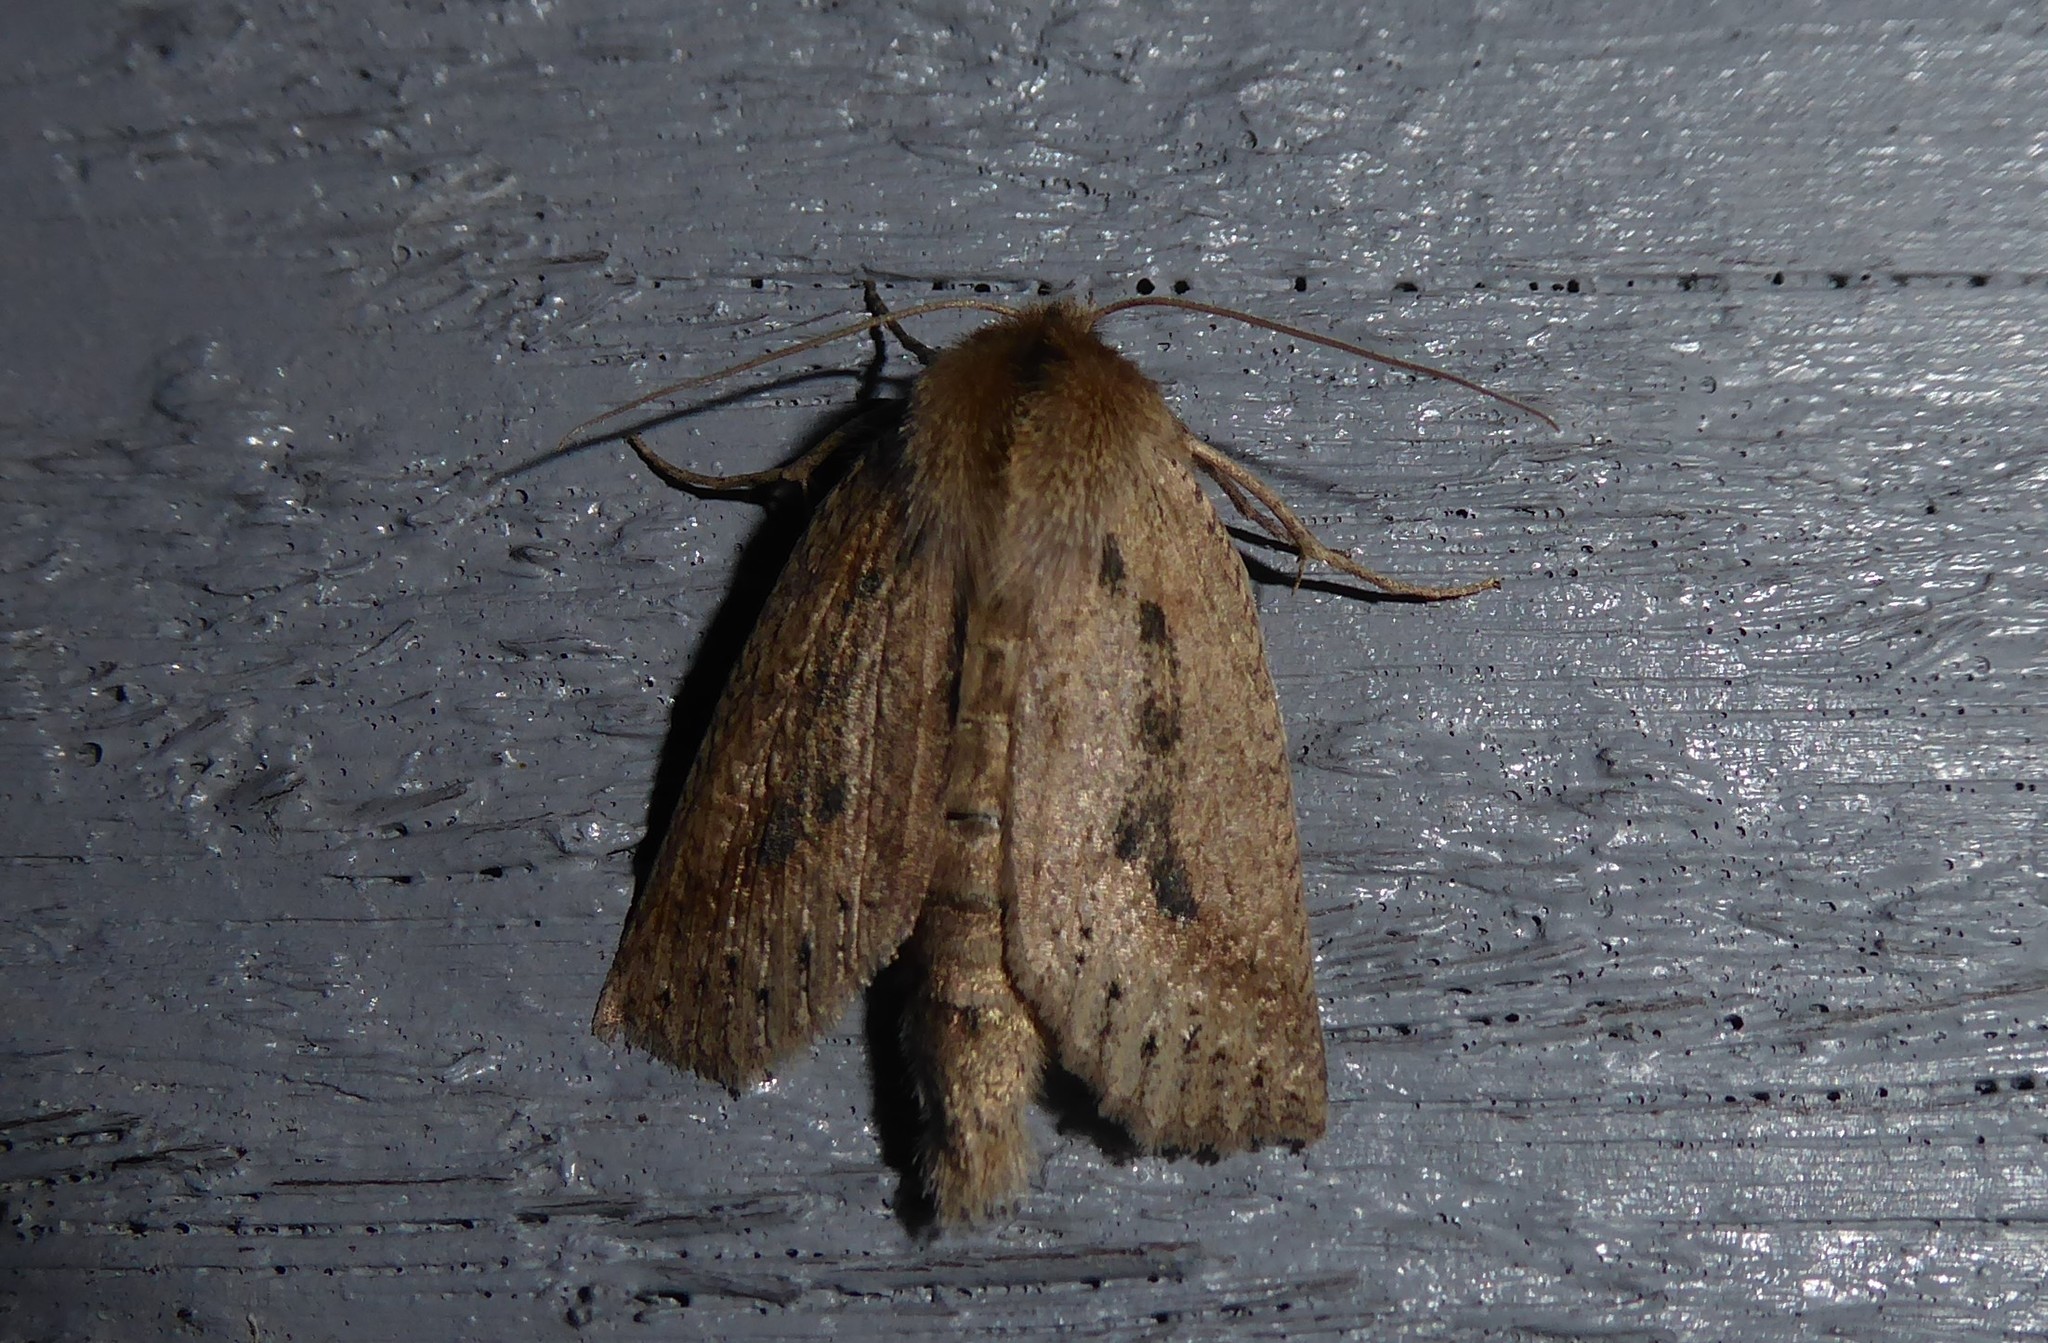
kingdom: Animalia
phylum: Arthropoda
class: Insecta
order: Lepidoptera
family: Geometridae
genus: Declana
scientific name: Declana leptomera
